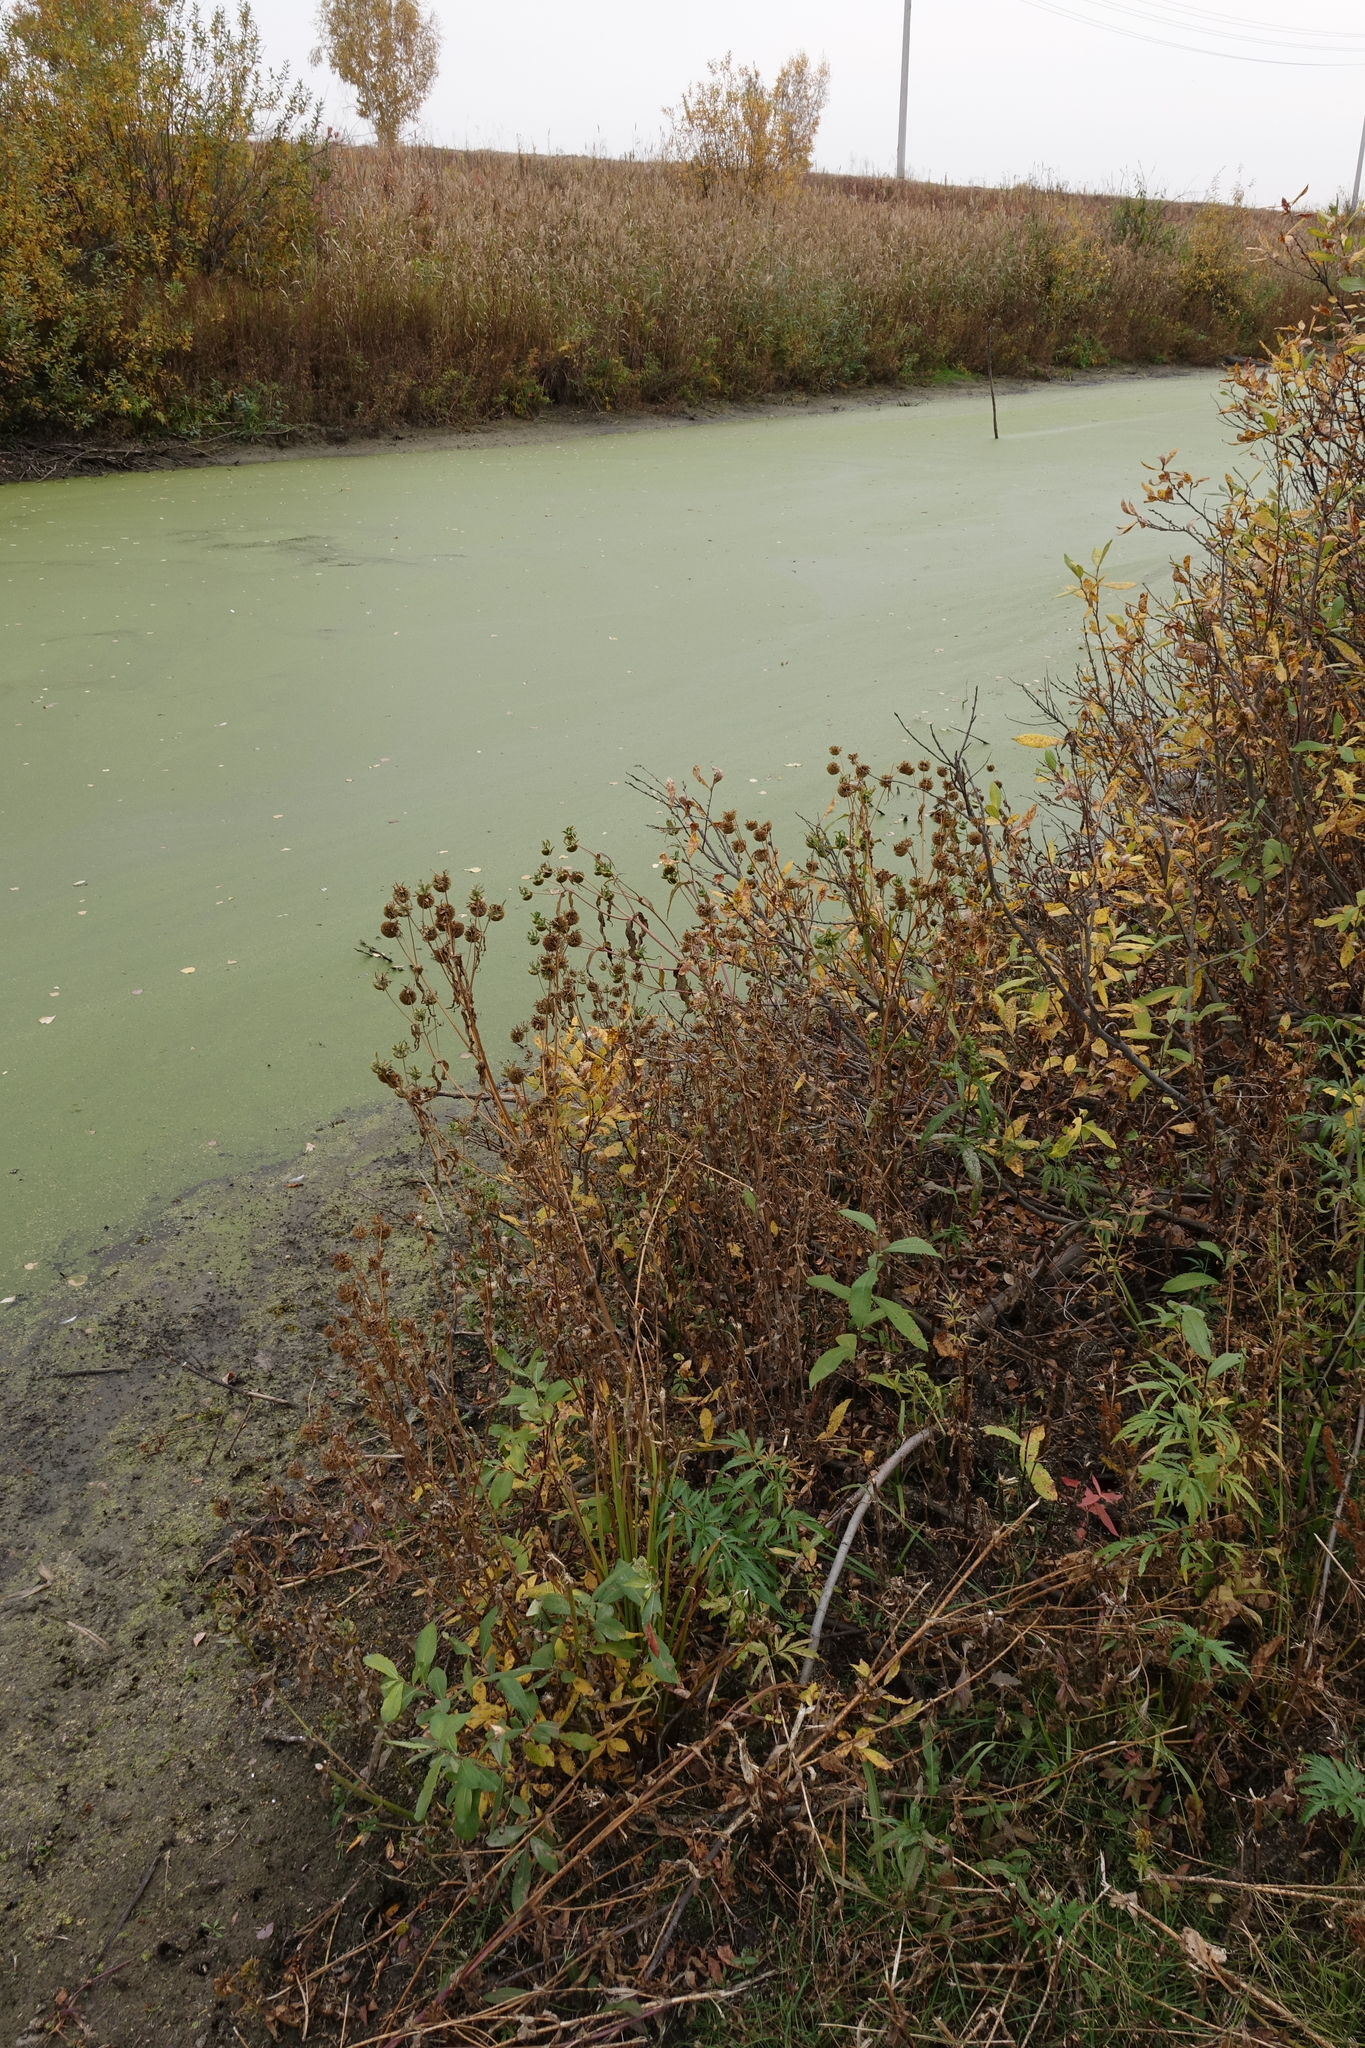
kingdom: Plantae
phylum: Tracheophyta
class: Magnoliopsida
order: Asterales
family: Asteraceae
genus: Bidens
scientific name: Bidens cernua
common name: Nodding bur-marigold
